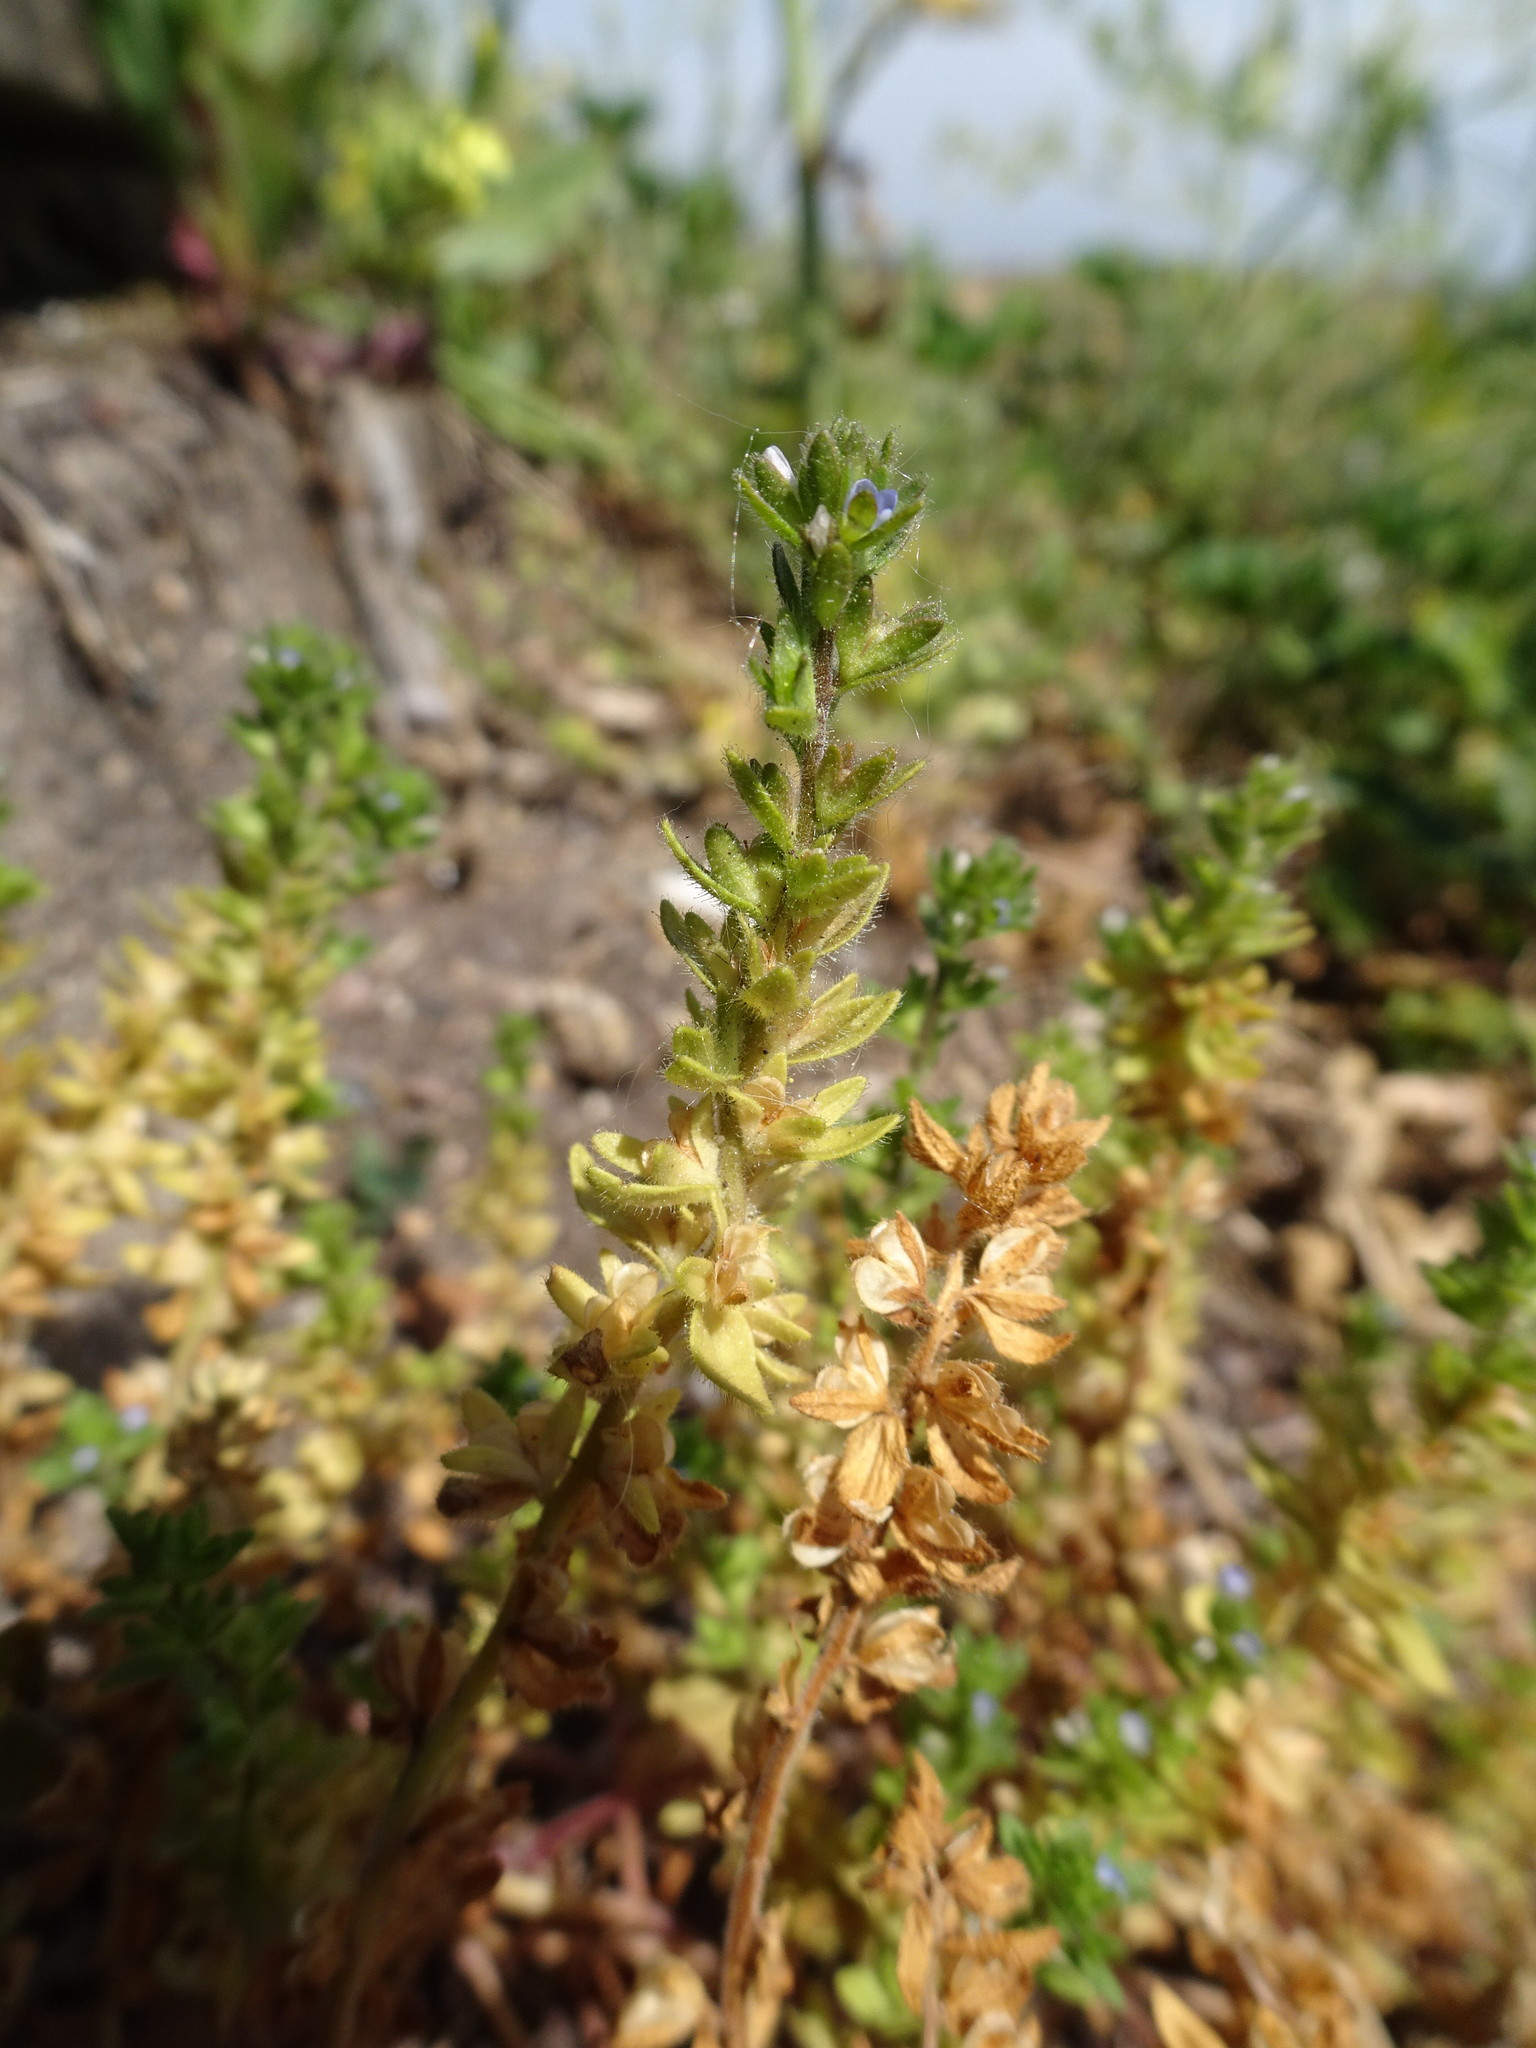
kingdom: Plantae
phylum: Tracheophyta
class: Magnoliopsida
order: Lamiales
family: Plantaginaceae
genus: Veronica
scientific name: Veronica arvensis
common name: Corn speedwell
